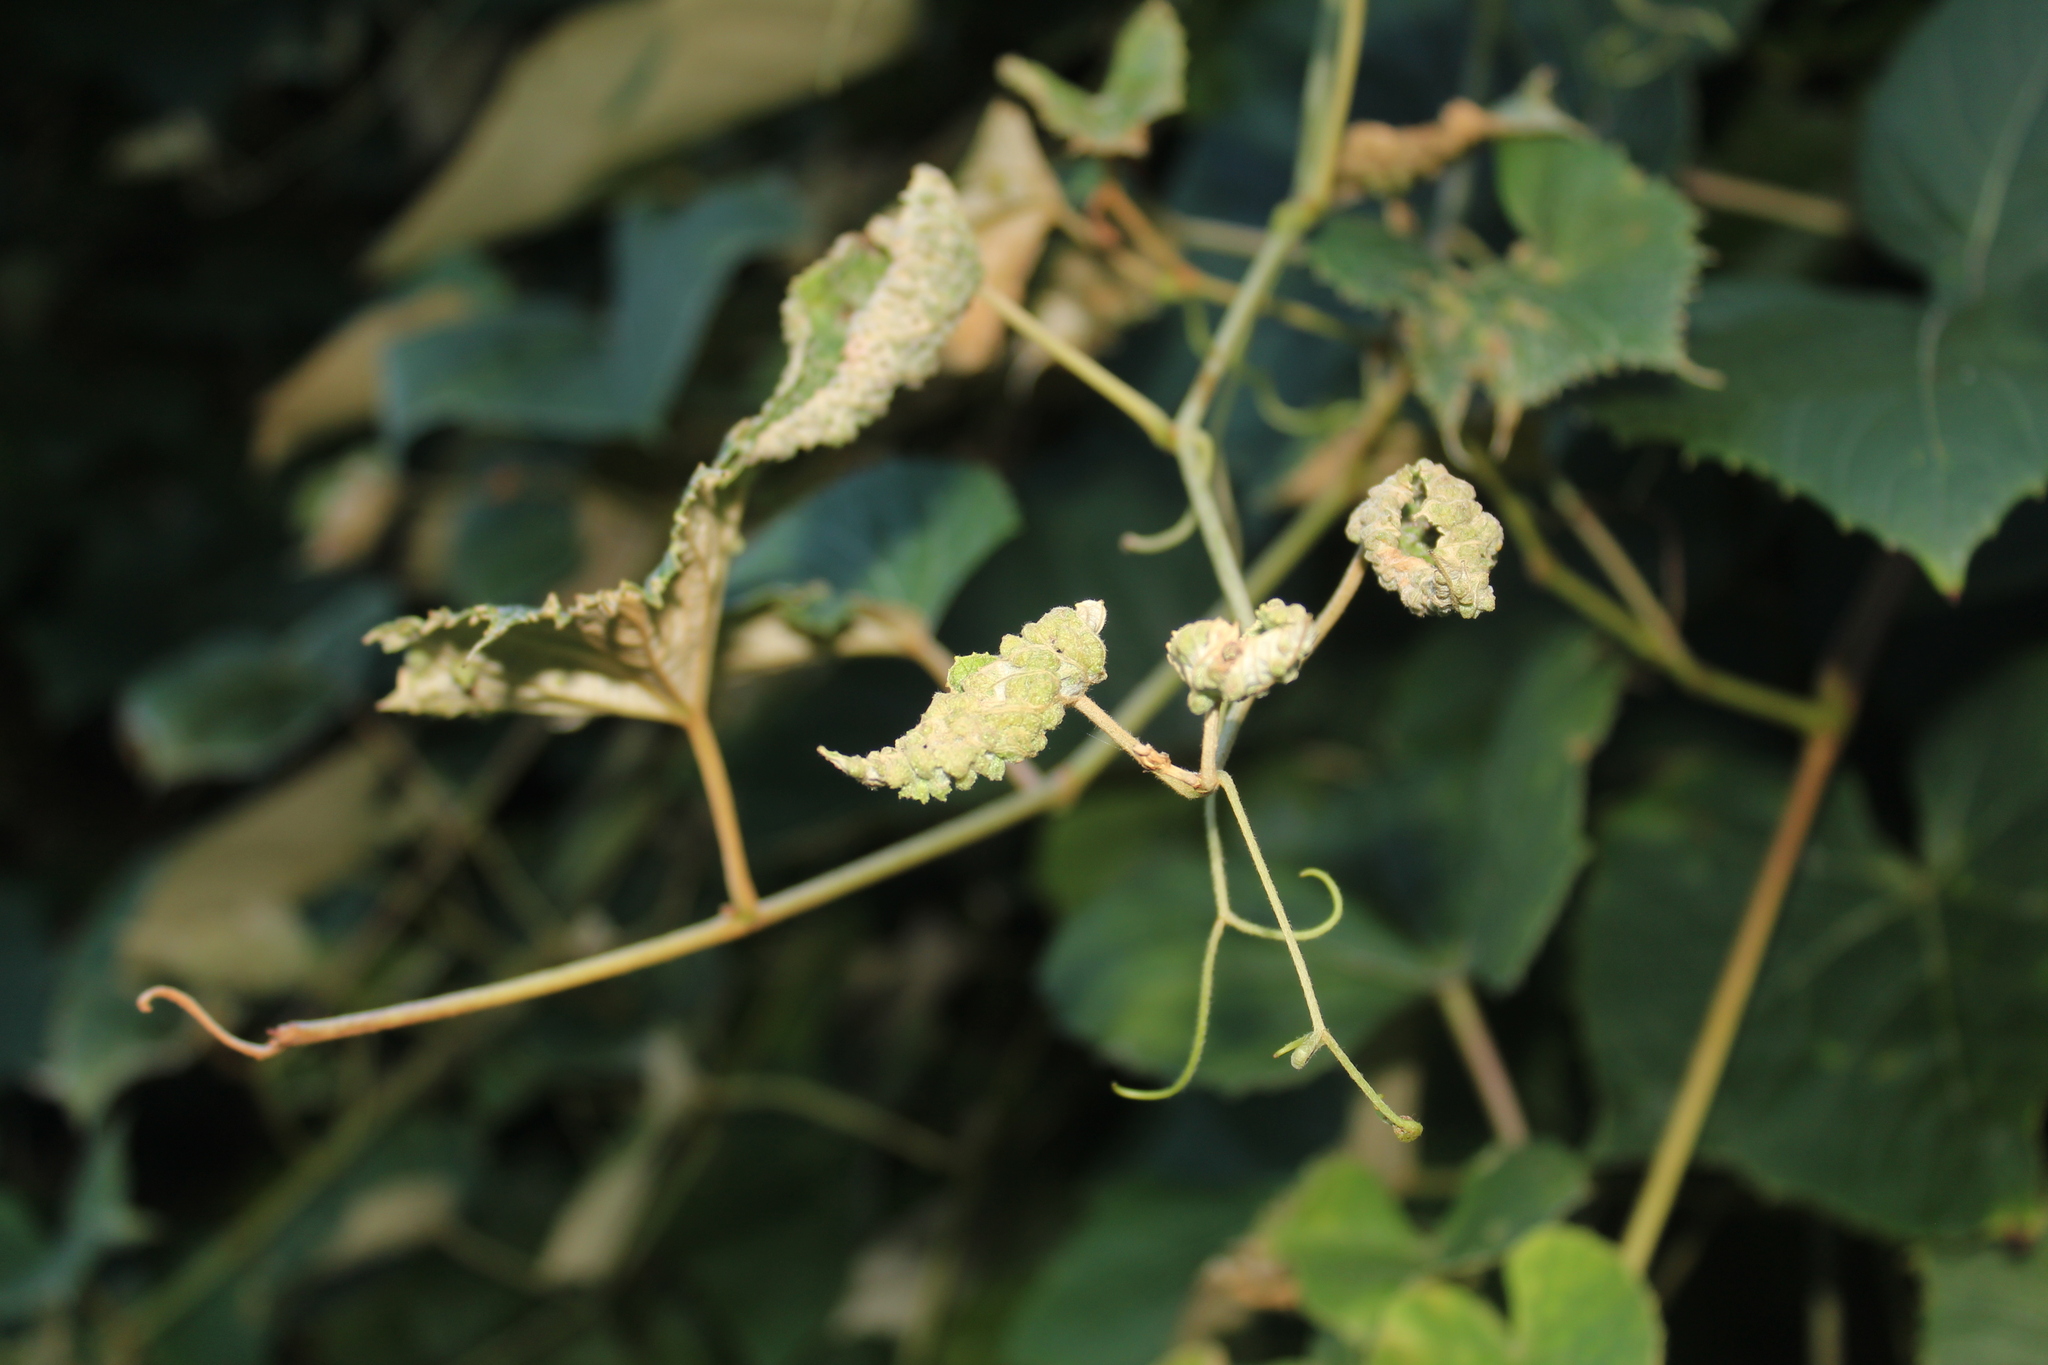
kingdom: Animalia
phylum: Arthropoda
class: Insecta
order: Hemiptera
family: Phylloxeridae
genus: Daktulosphaira
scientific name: Daktulosphaira vitifoliae
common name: Grape phylloxera
